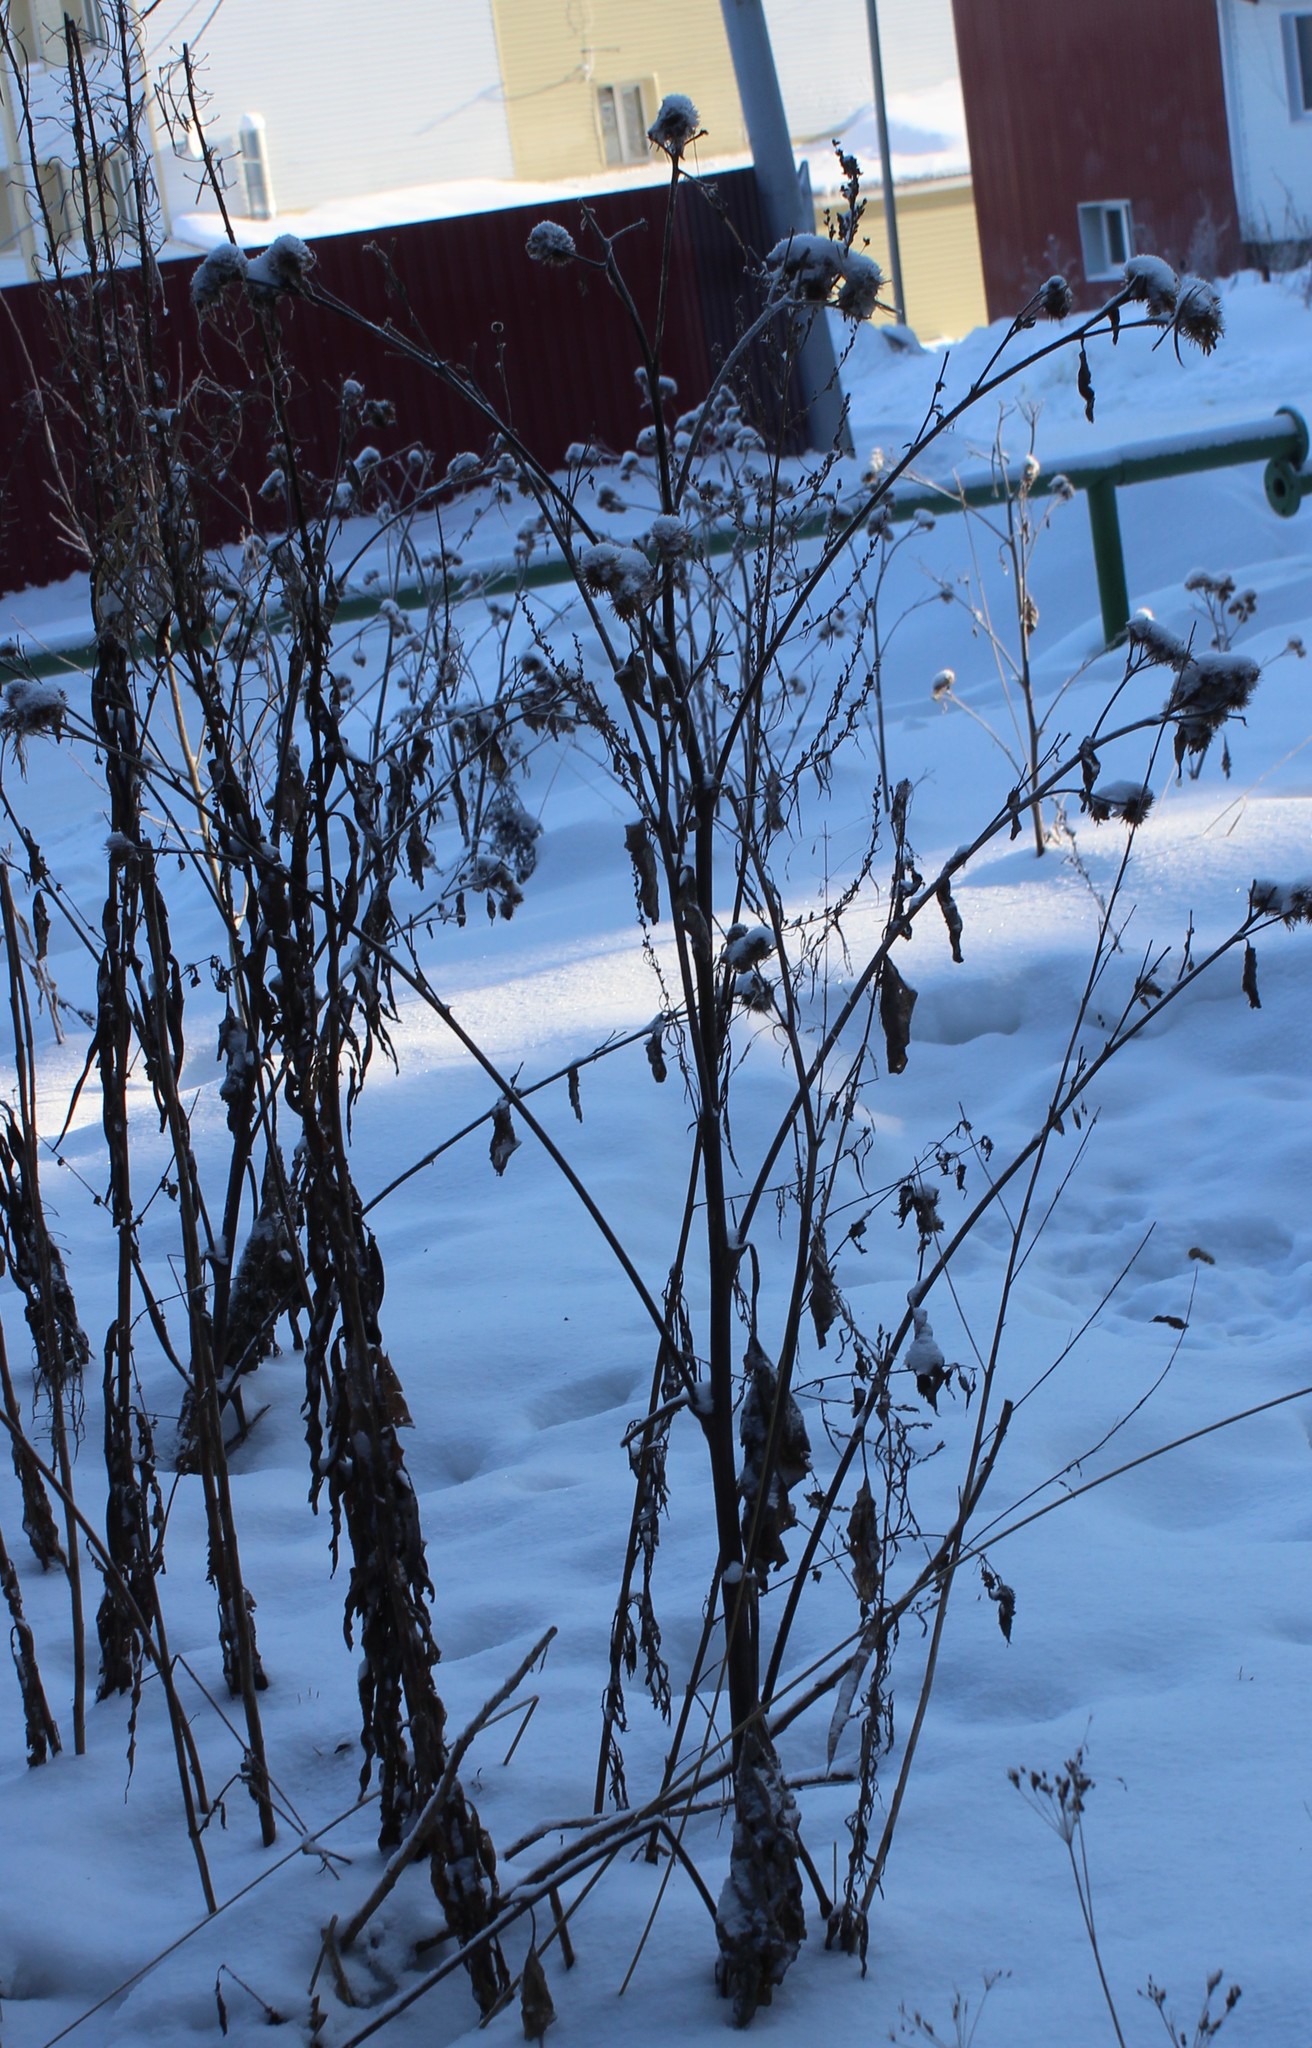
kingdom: Plantae
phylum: Tracheophyta
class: Magnoliopsida
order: Asterales
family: Asteraceae
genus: Arctium
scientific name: Arctium tomentosum
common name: Woolly burdock
